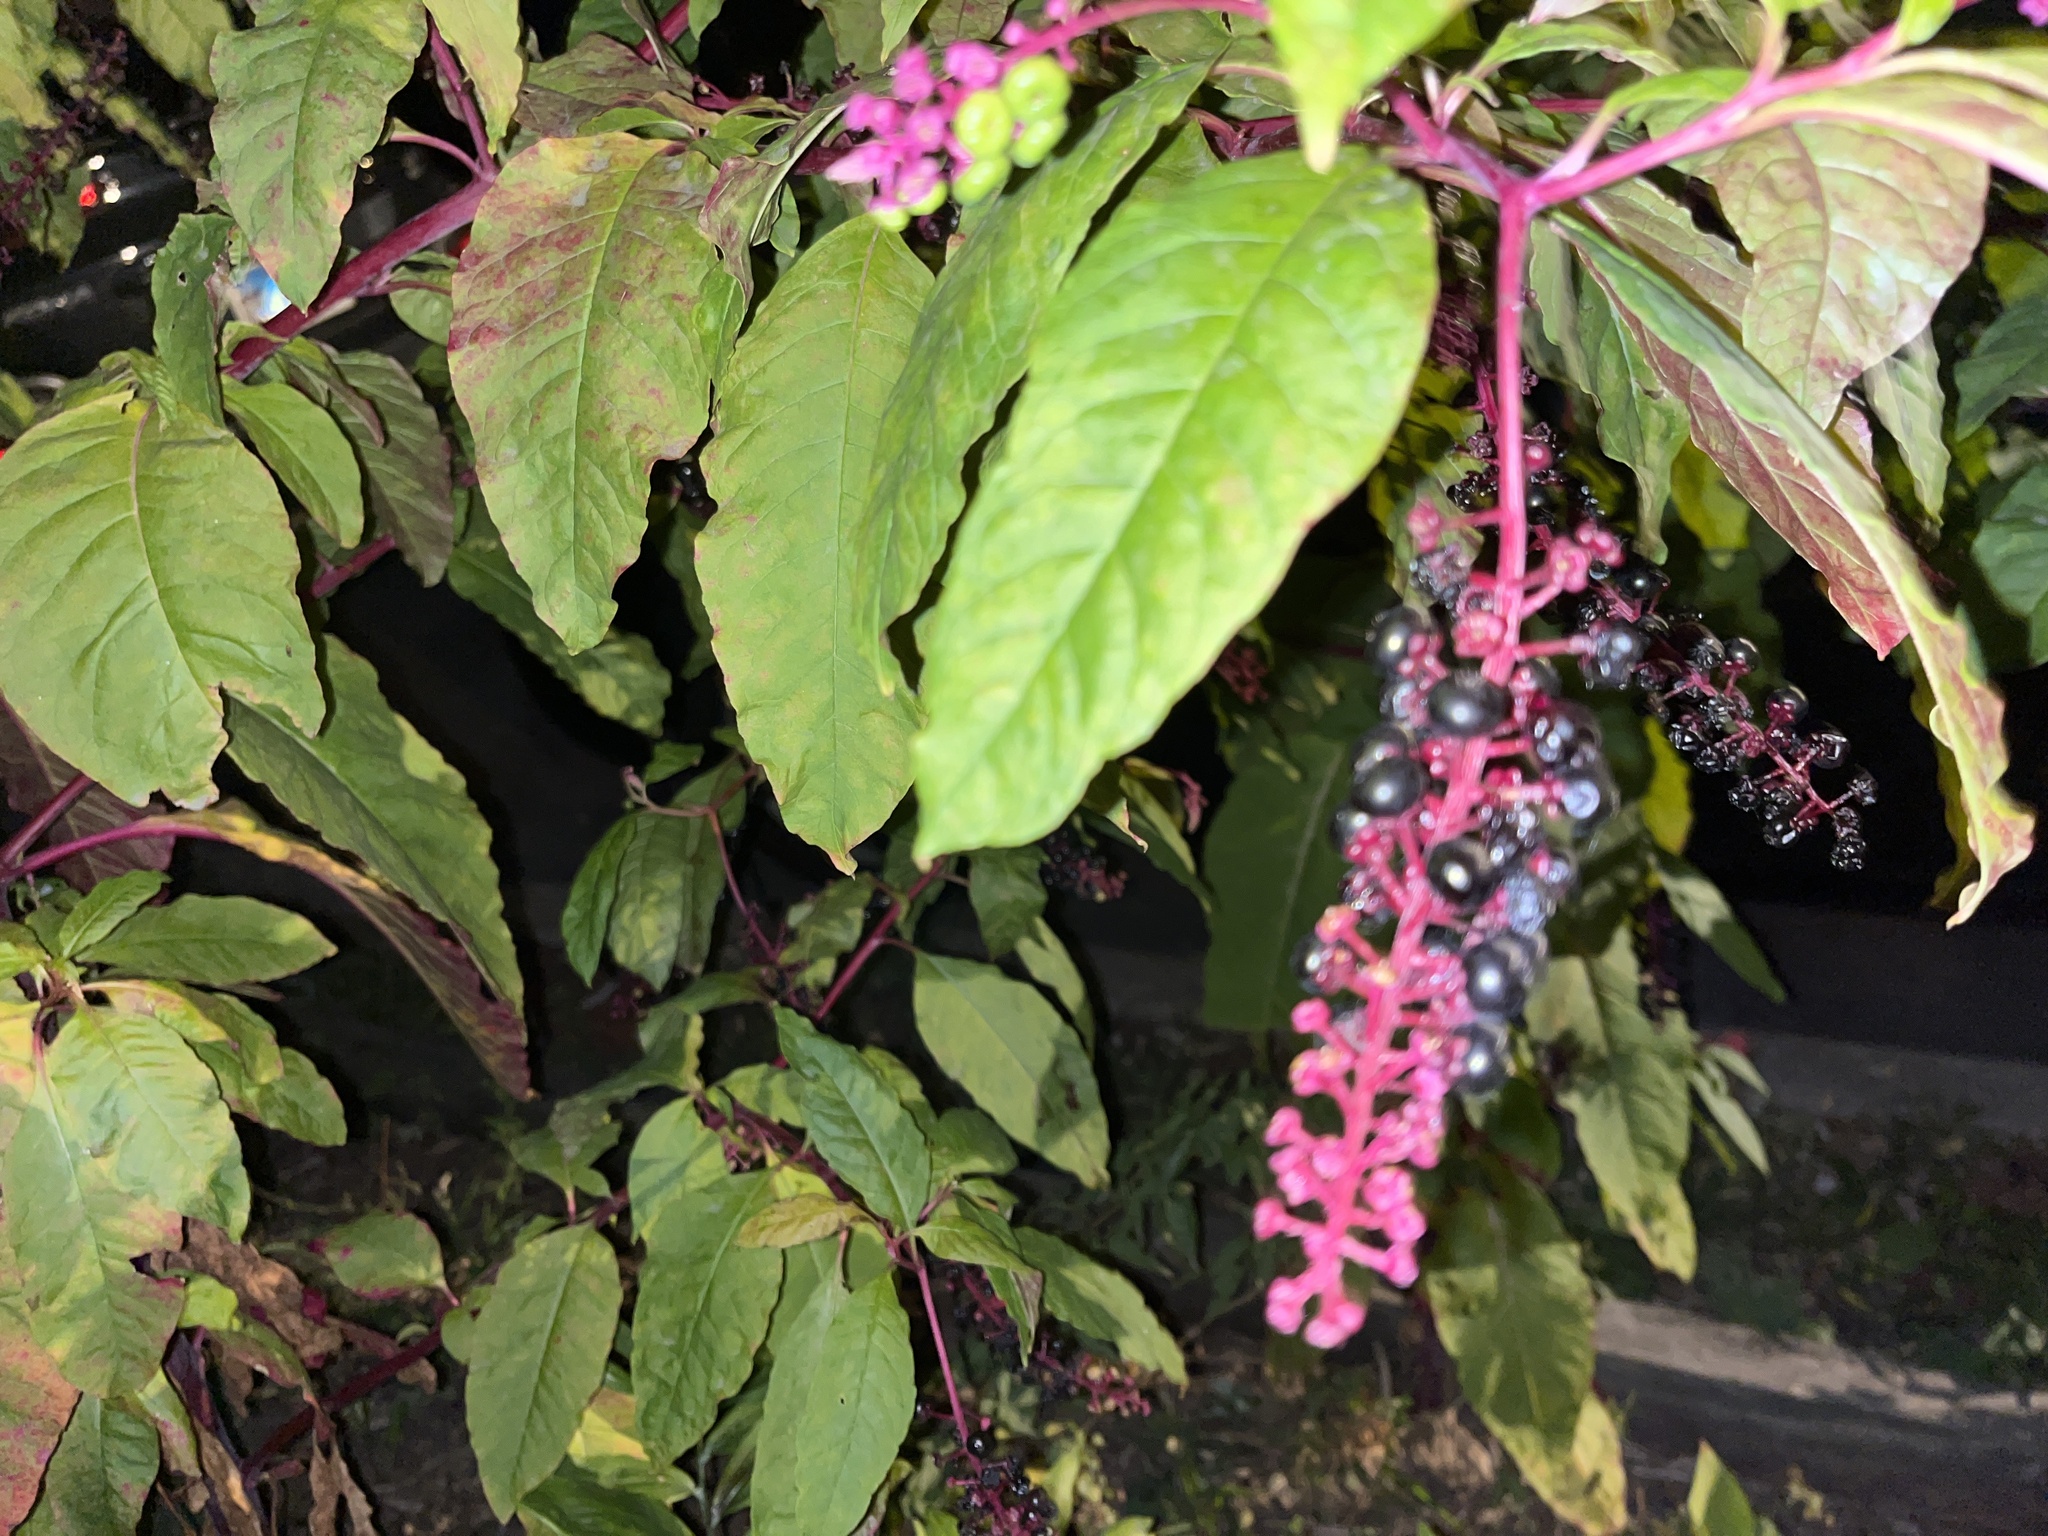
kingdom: Plantae
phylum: Tracheophyta
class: Magnoliopsida
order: Caryophyllales
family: Phytolaccaceae
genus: Phytolacca
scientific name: Phytolacca americana
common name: American pokeweed
